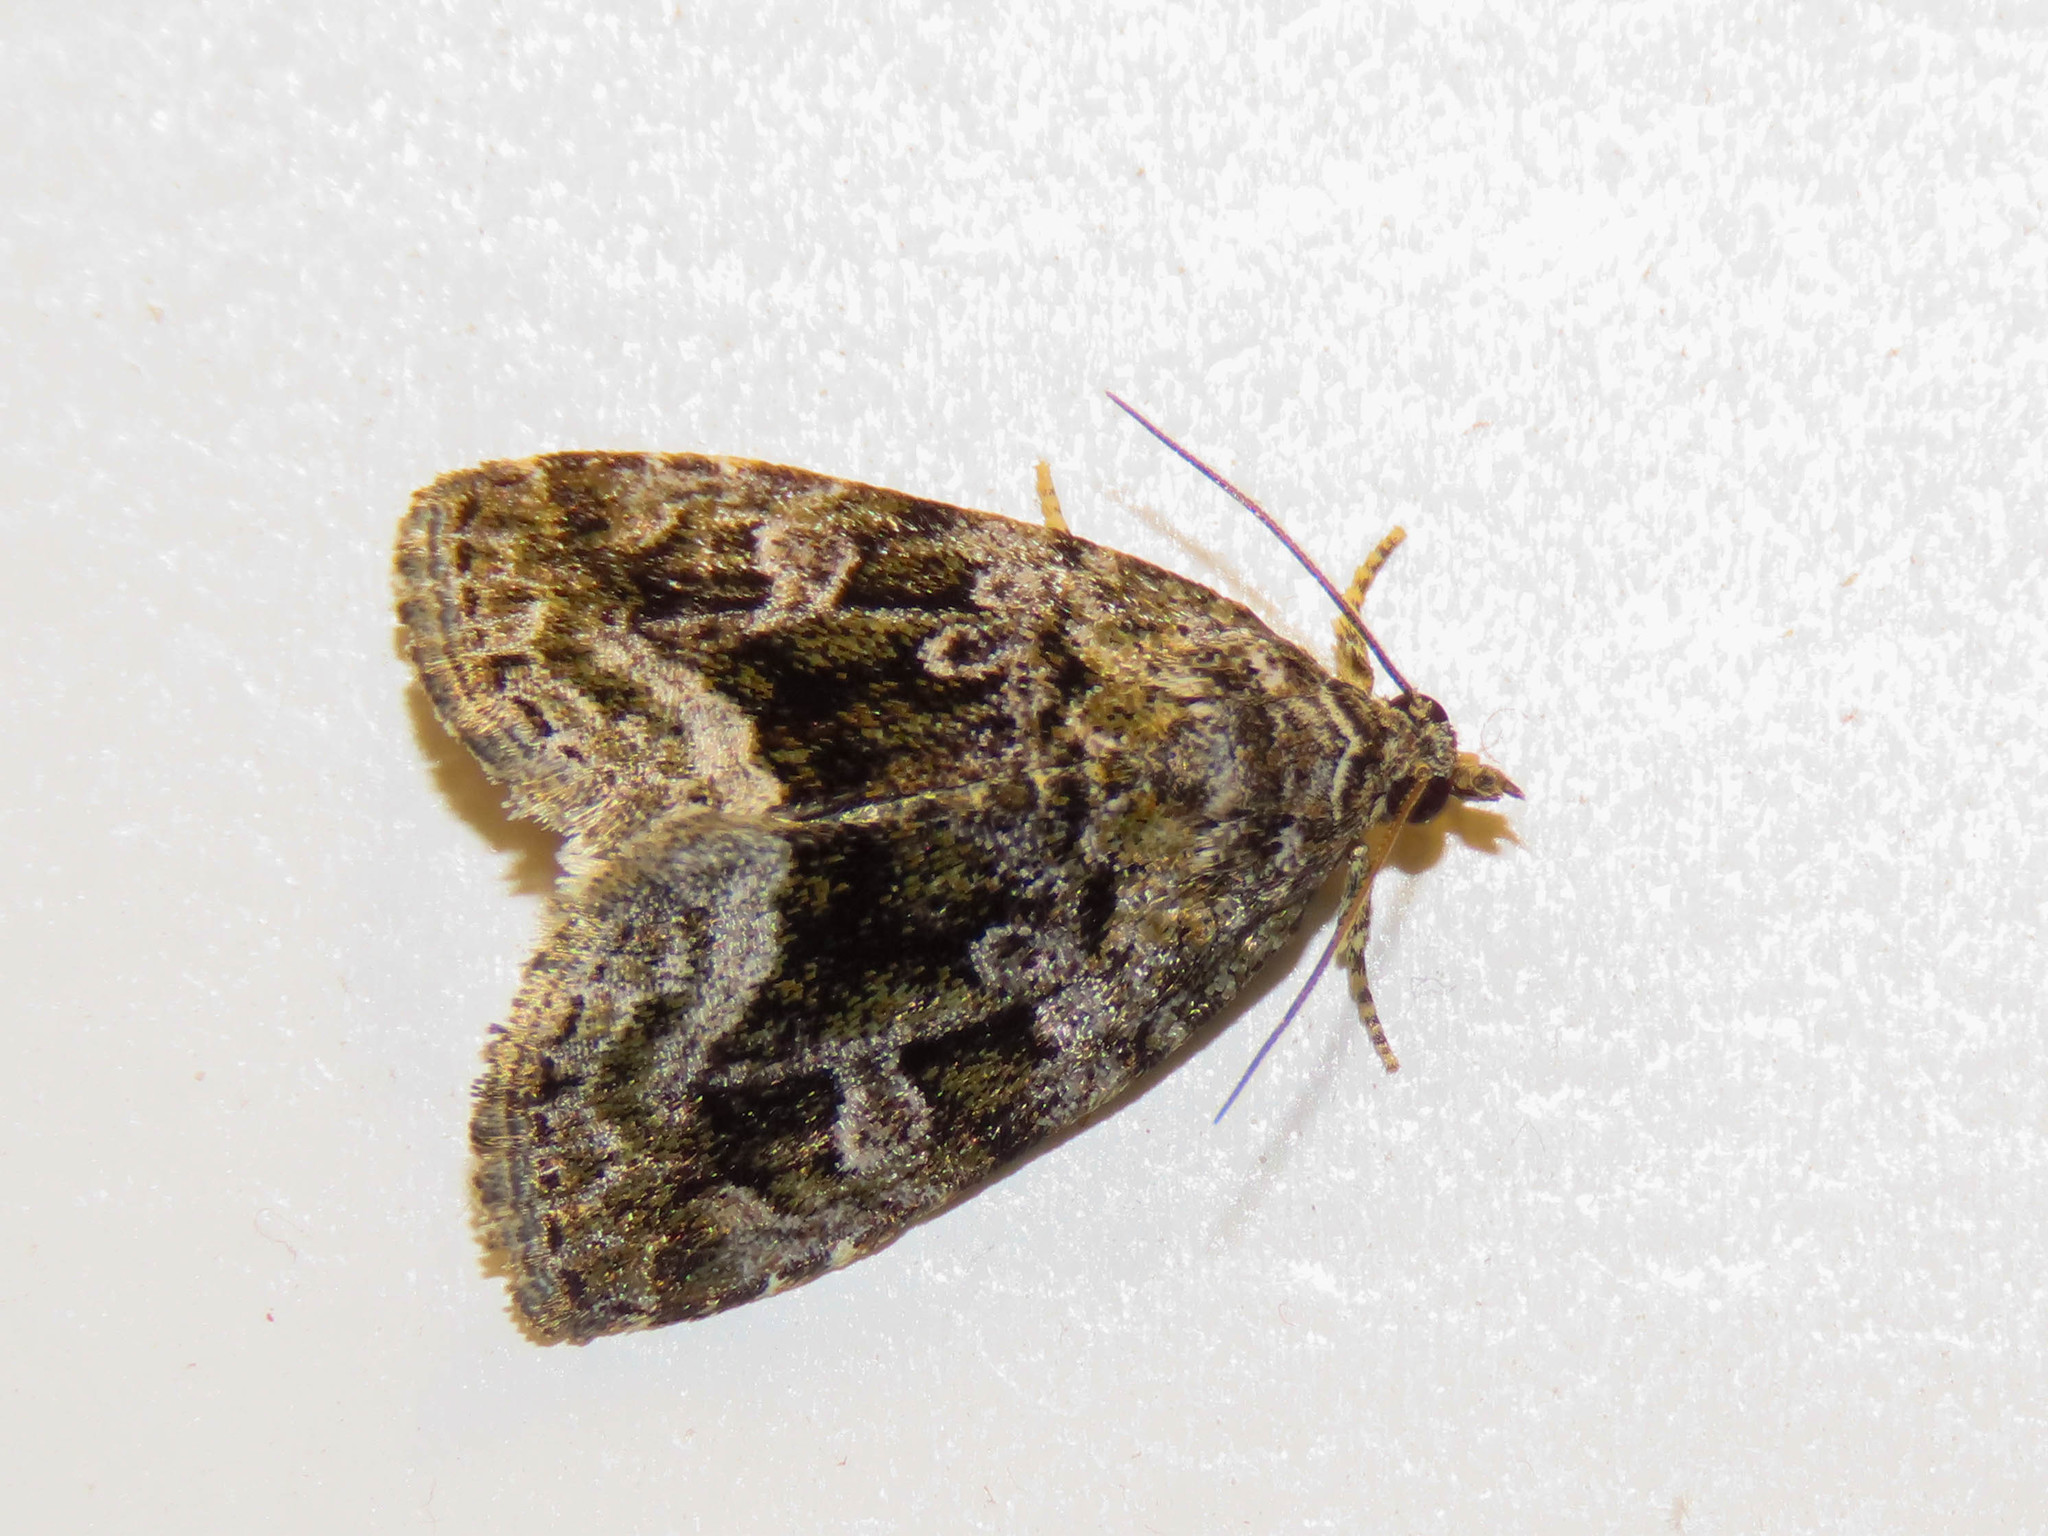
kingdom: Animalia
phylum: Arthropoda
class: Insecta
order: Lepidoptera
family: Noctuidae
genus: Protodeltote
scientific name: Protodeltote muscosula
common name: Large mossy glyph
